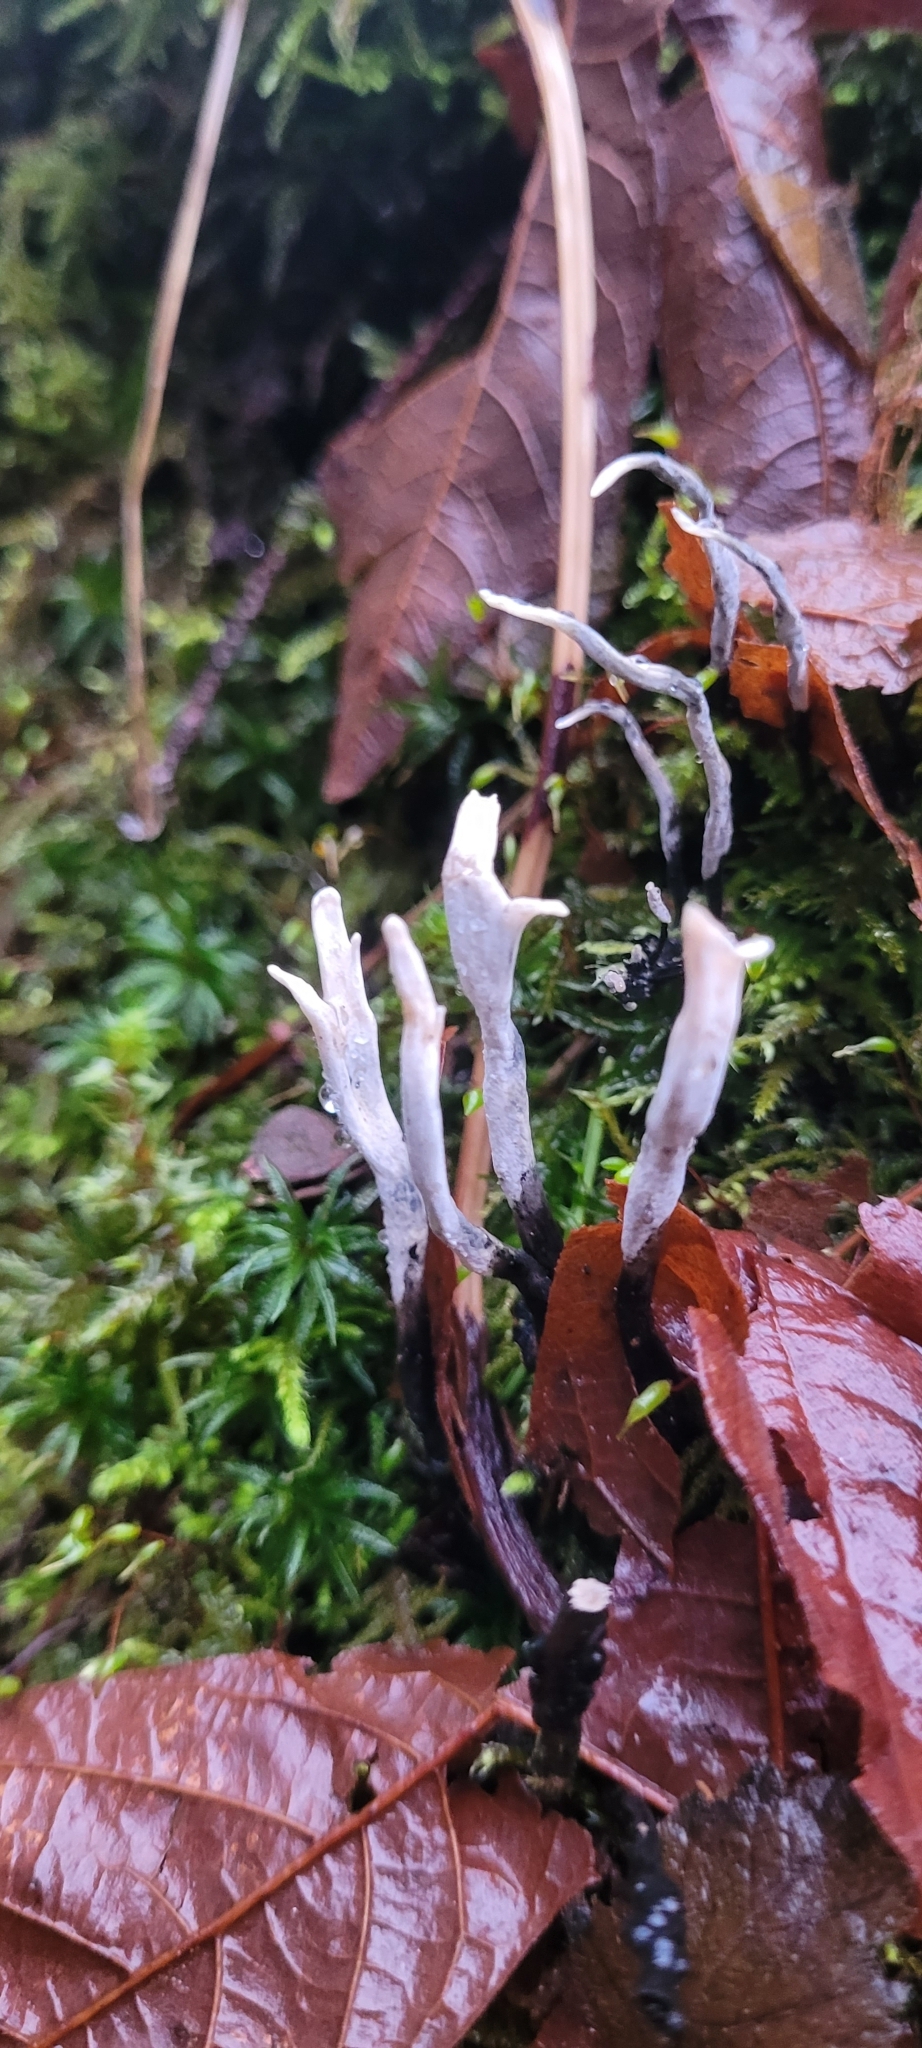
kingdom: Fungi
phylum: Ascomycota
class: Sordariomycetes
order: Xylariales
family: Xylariaceae
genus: Xylaria
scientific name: Xylaria hypoxylon
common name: Candle-snuff fungus
